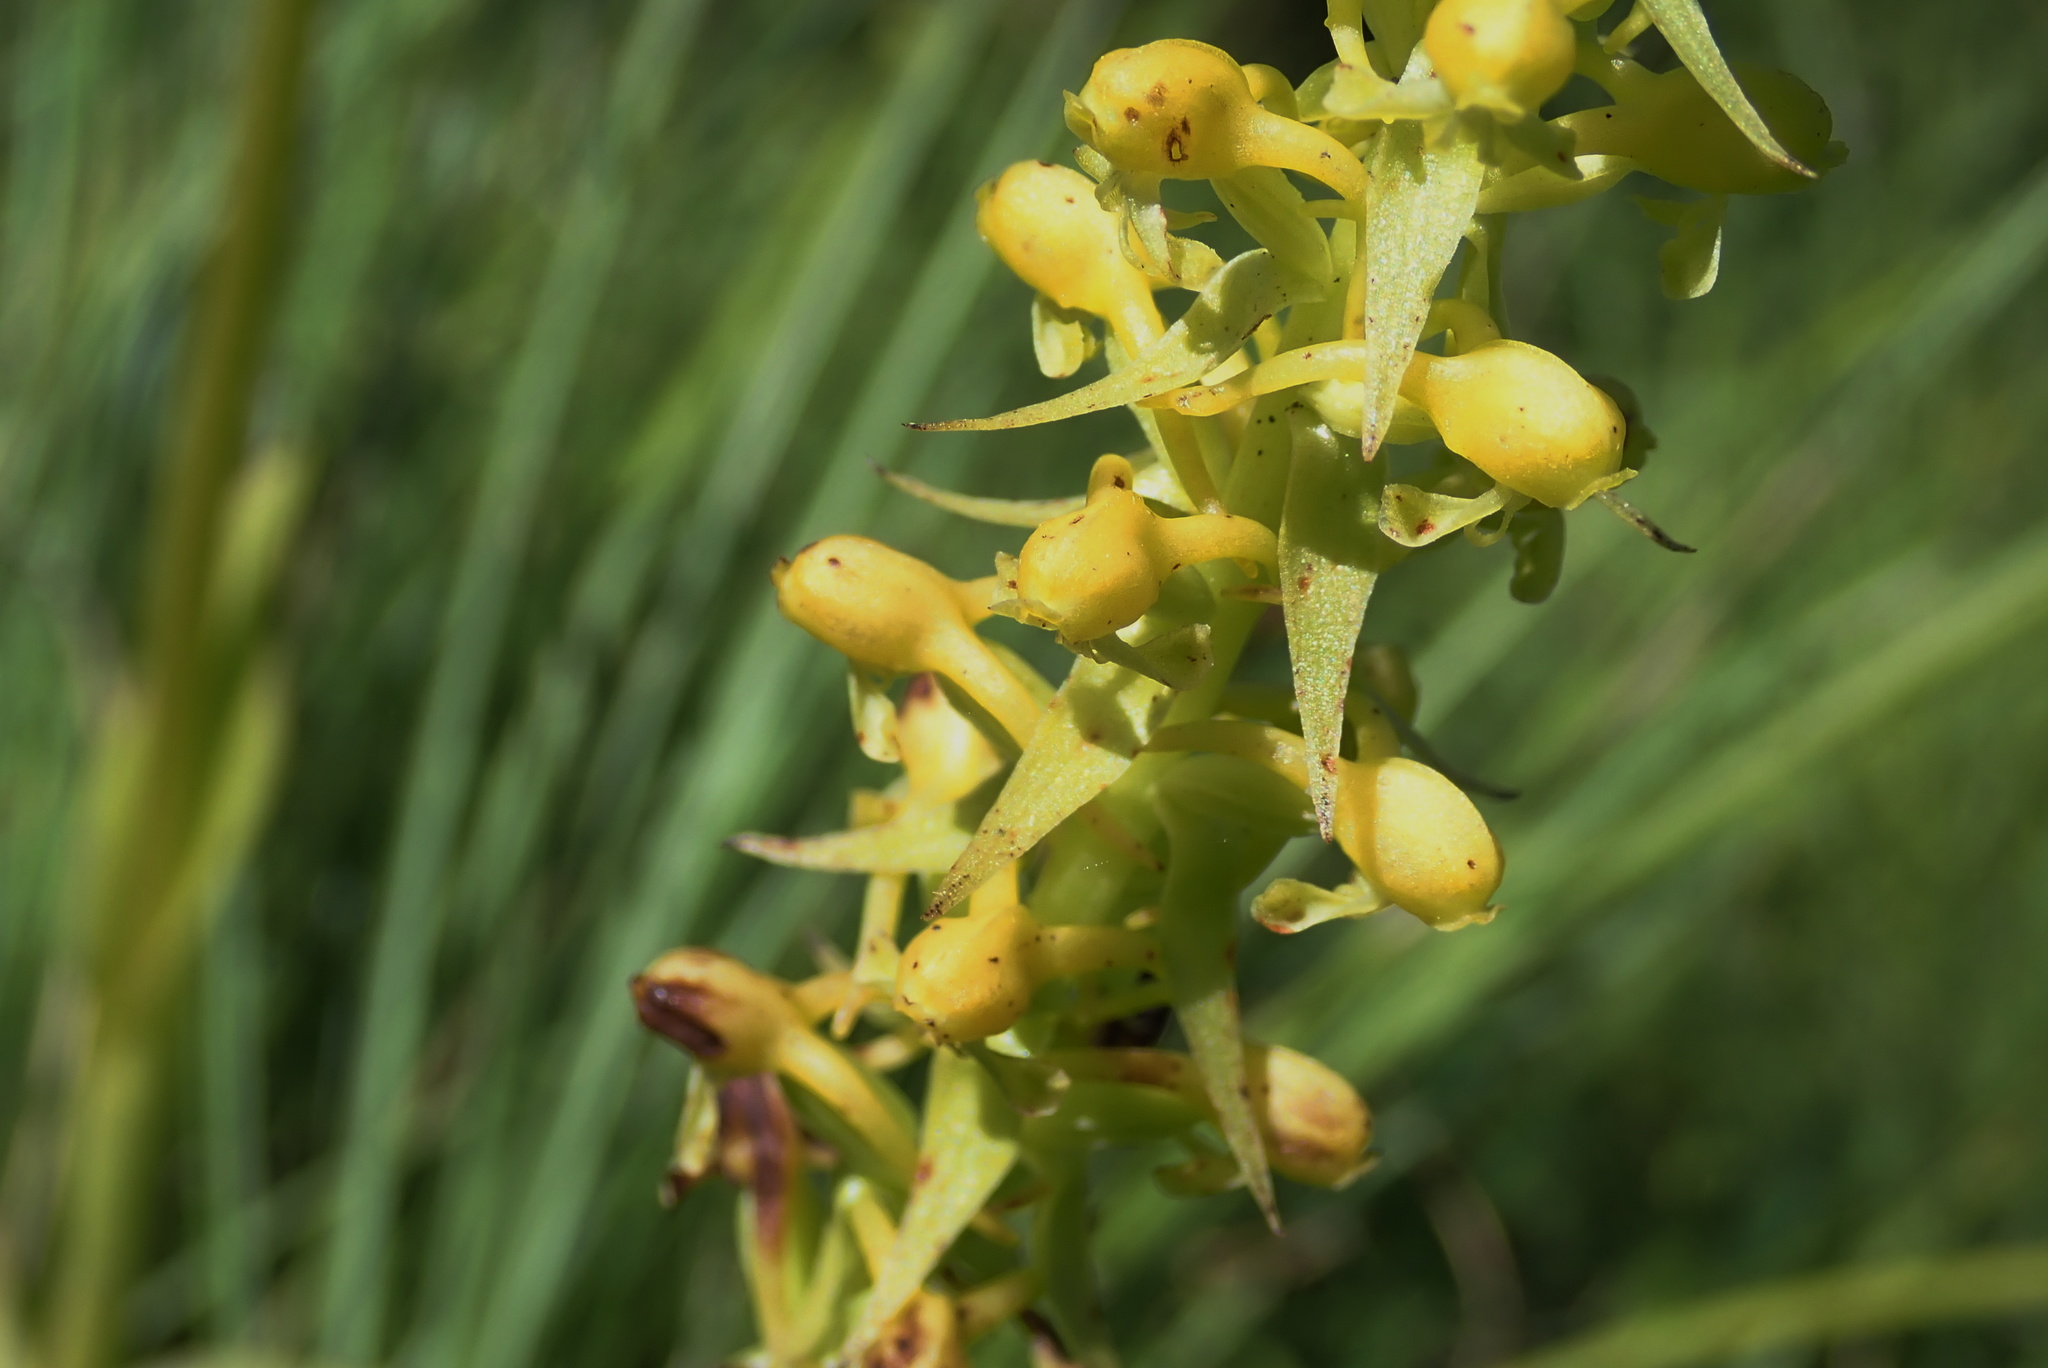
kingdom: Plantae
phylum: Tracheophyta
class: Liliopsida
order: Asparagales
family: Orchidaceae
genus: Satyrium
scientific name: Satyrium parviflorum
